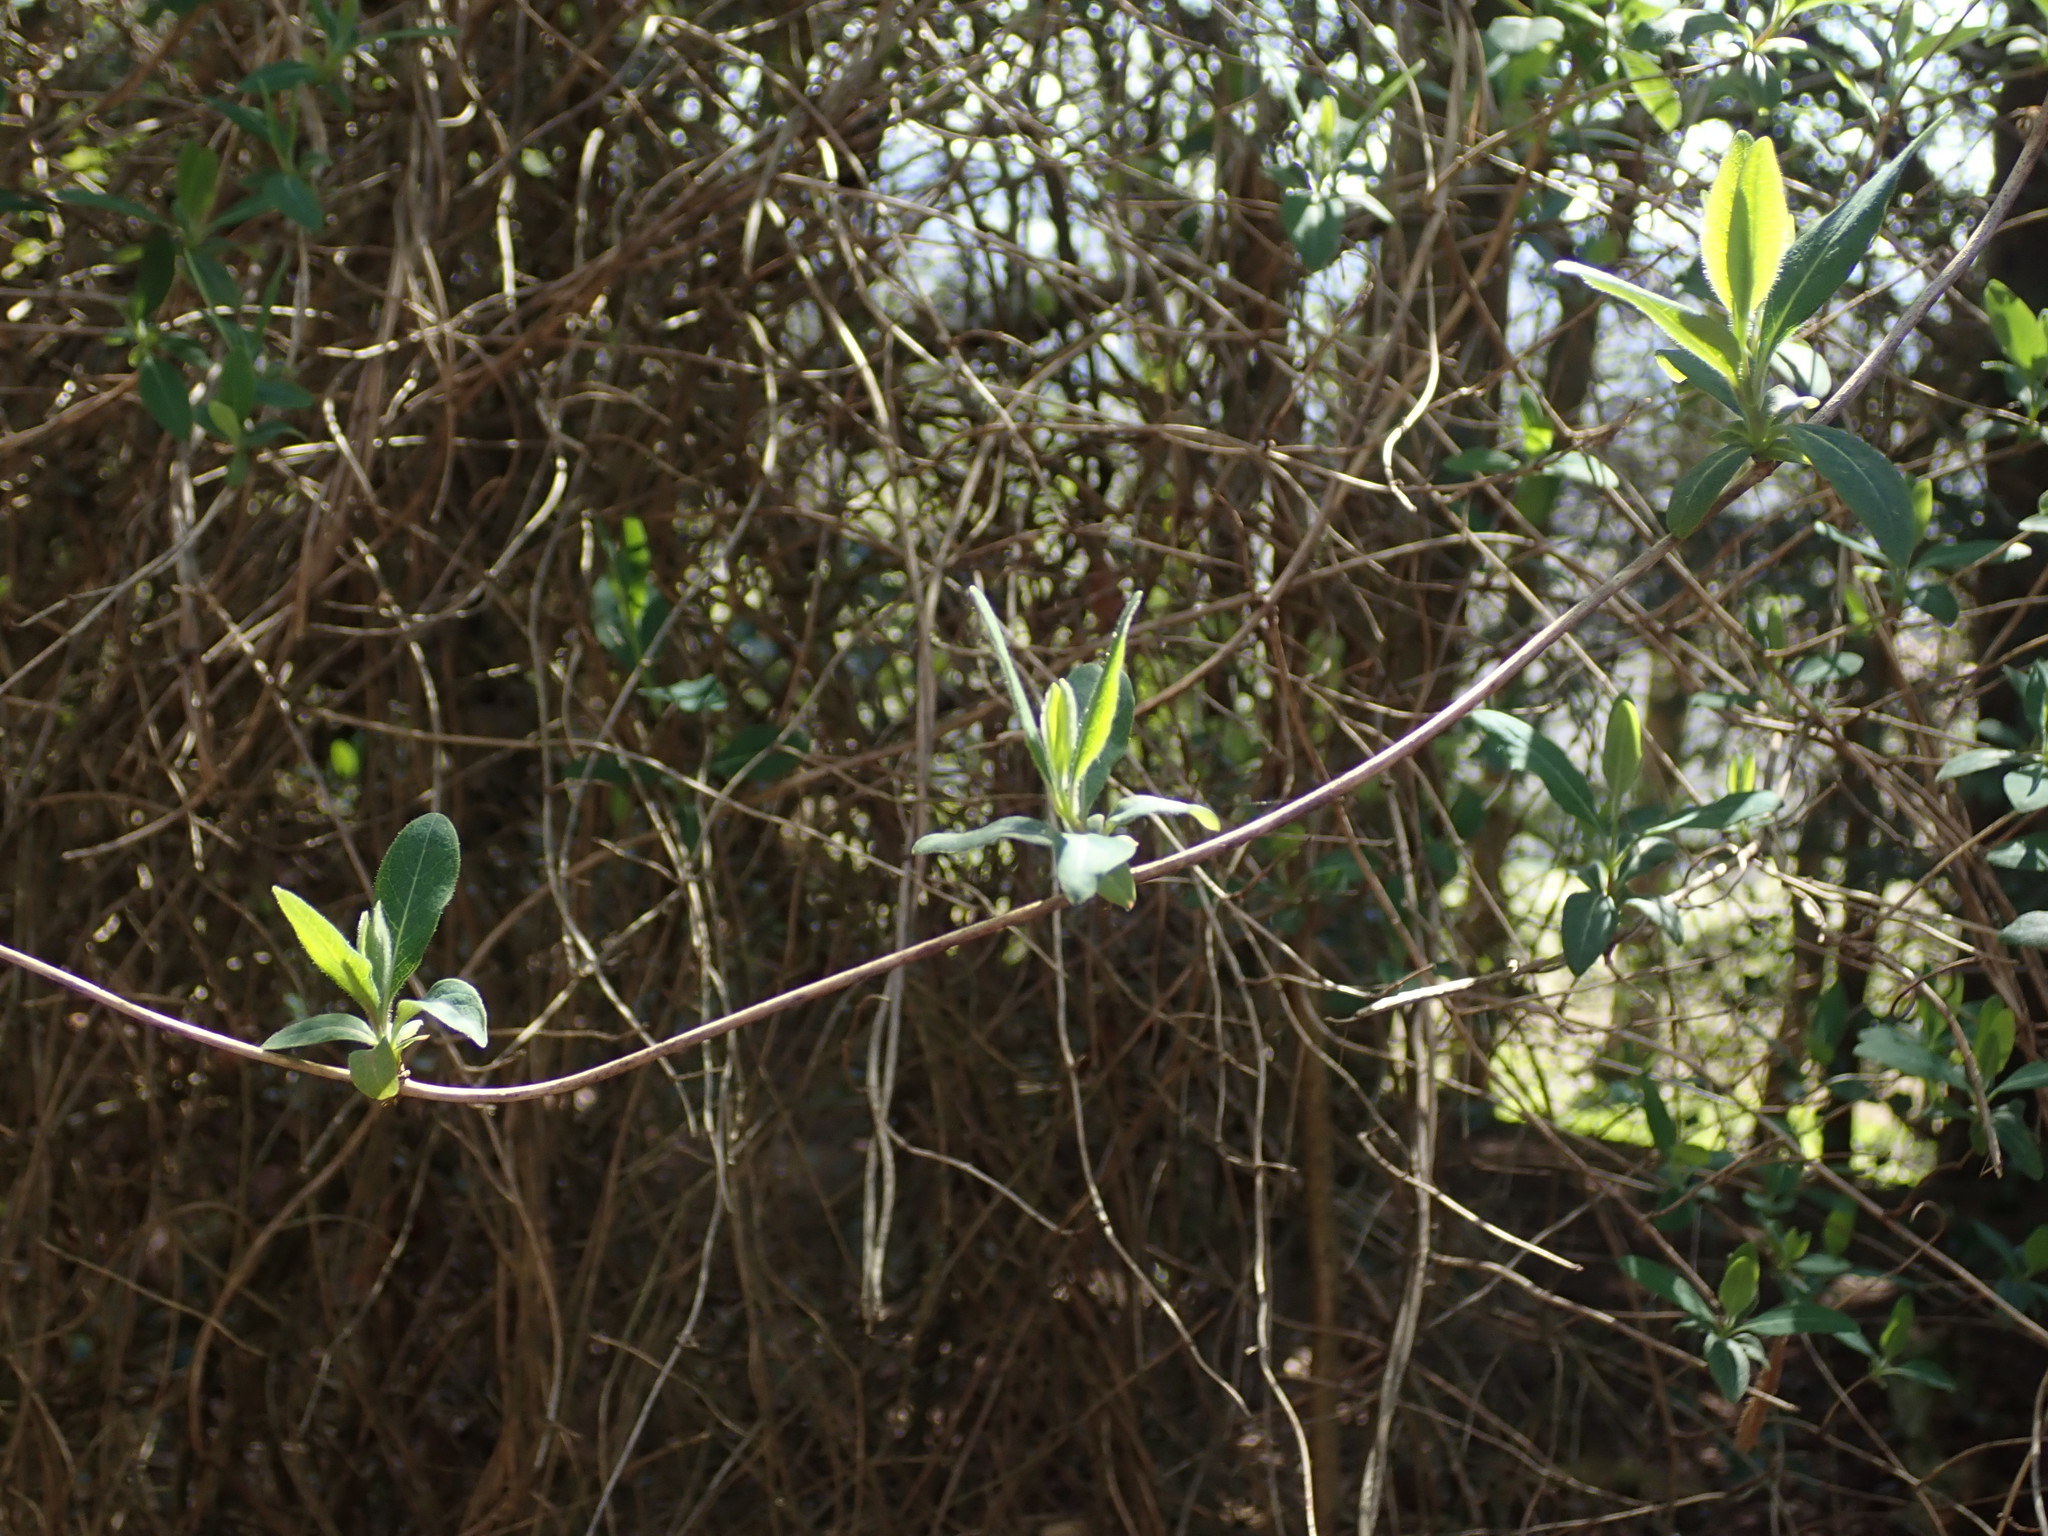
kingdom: Plantae
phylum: Tracheophyta
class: Magnoliopsida
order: Dipsacales
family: Caprifoliaceae
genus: Lonicera
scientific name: Lonicera periclymenum
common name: European honeysuckle
